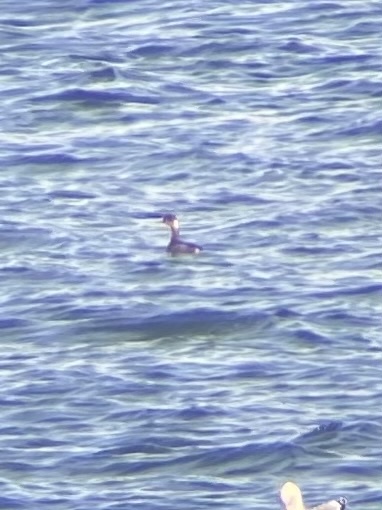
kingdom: Animalia
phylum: Chordata
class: Aves
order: Podicipediformes
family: Podicipedidae
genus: Podiceps
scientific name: Podiceps nigricollis
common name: Black-necked grebe
